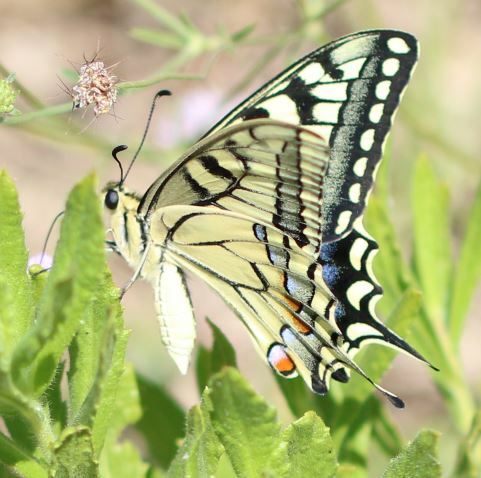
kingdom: Animalia
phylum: Arthropoda
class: Insecta
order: Lepidoptera
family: Papilionidae
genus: Papilio
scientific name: Papilio machaon
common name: Swallowtail
